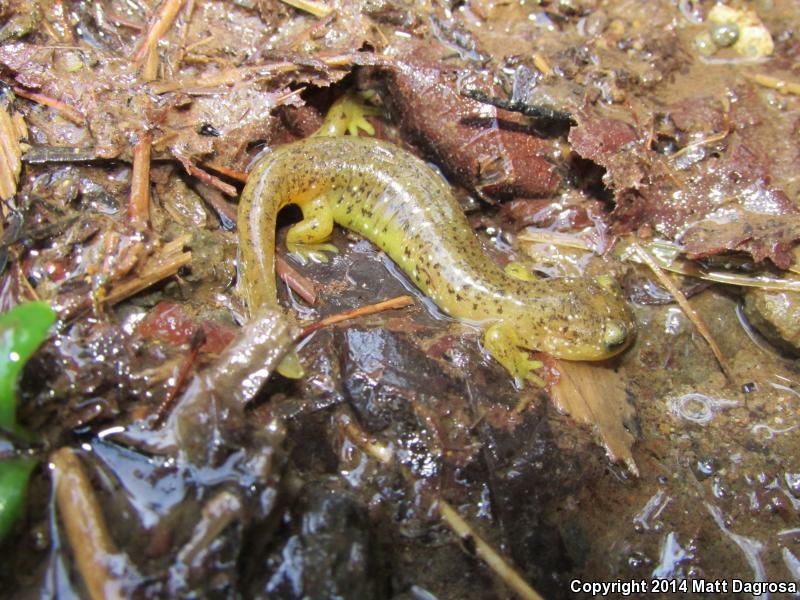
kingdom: Animalia
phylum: Chordata
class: Amphibia
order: Caudata
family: Rhyacotritonidae
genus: Rhyacotriton
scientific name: Rhyacotriton cascadae
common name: Cascade torrent salamander
